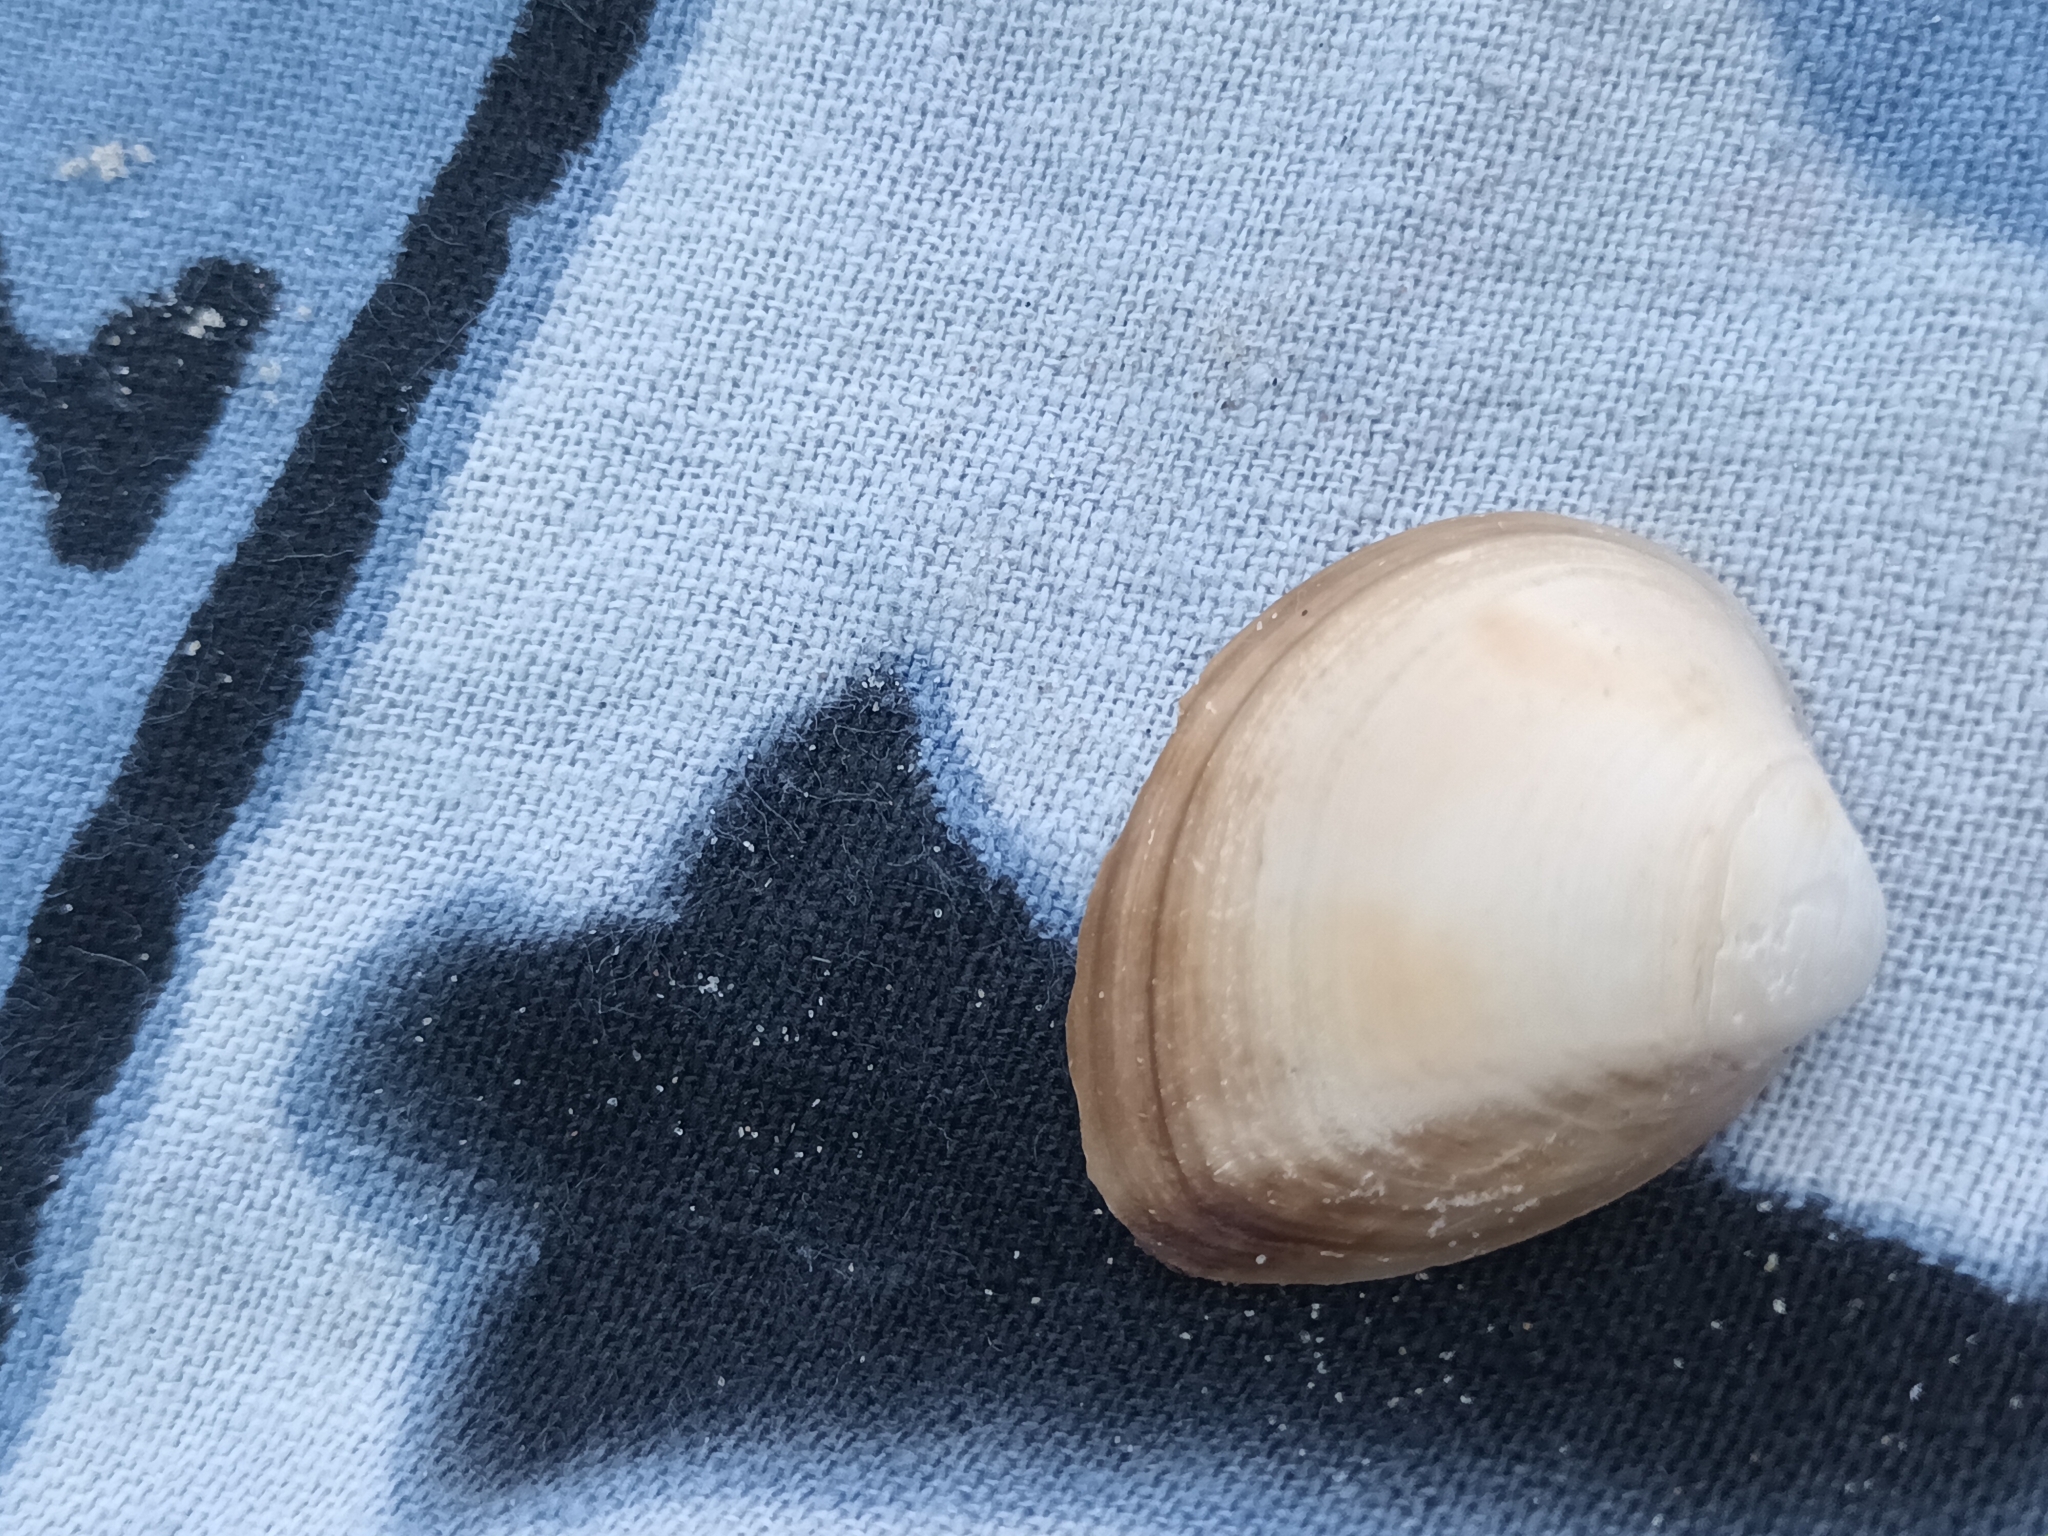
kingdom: Animalia
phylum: Mollusca
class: Bivalvia
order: Venerida
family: Mactridae
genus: Rangia
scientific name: Rangia cuneata
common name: Atlantic rangia
